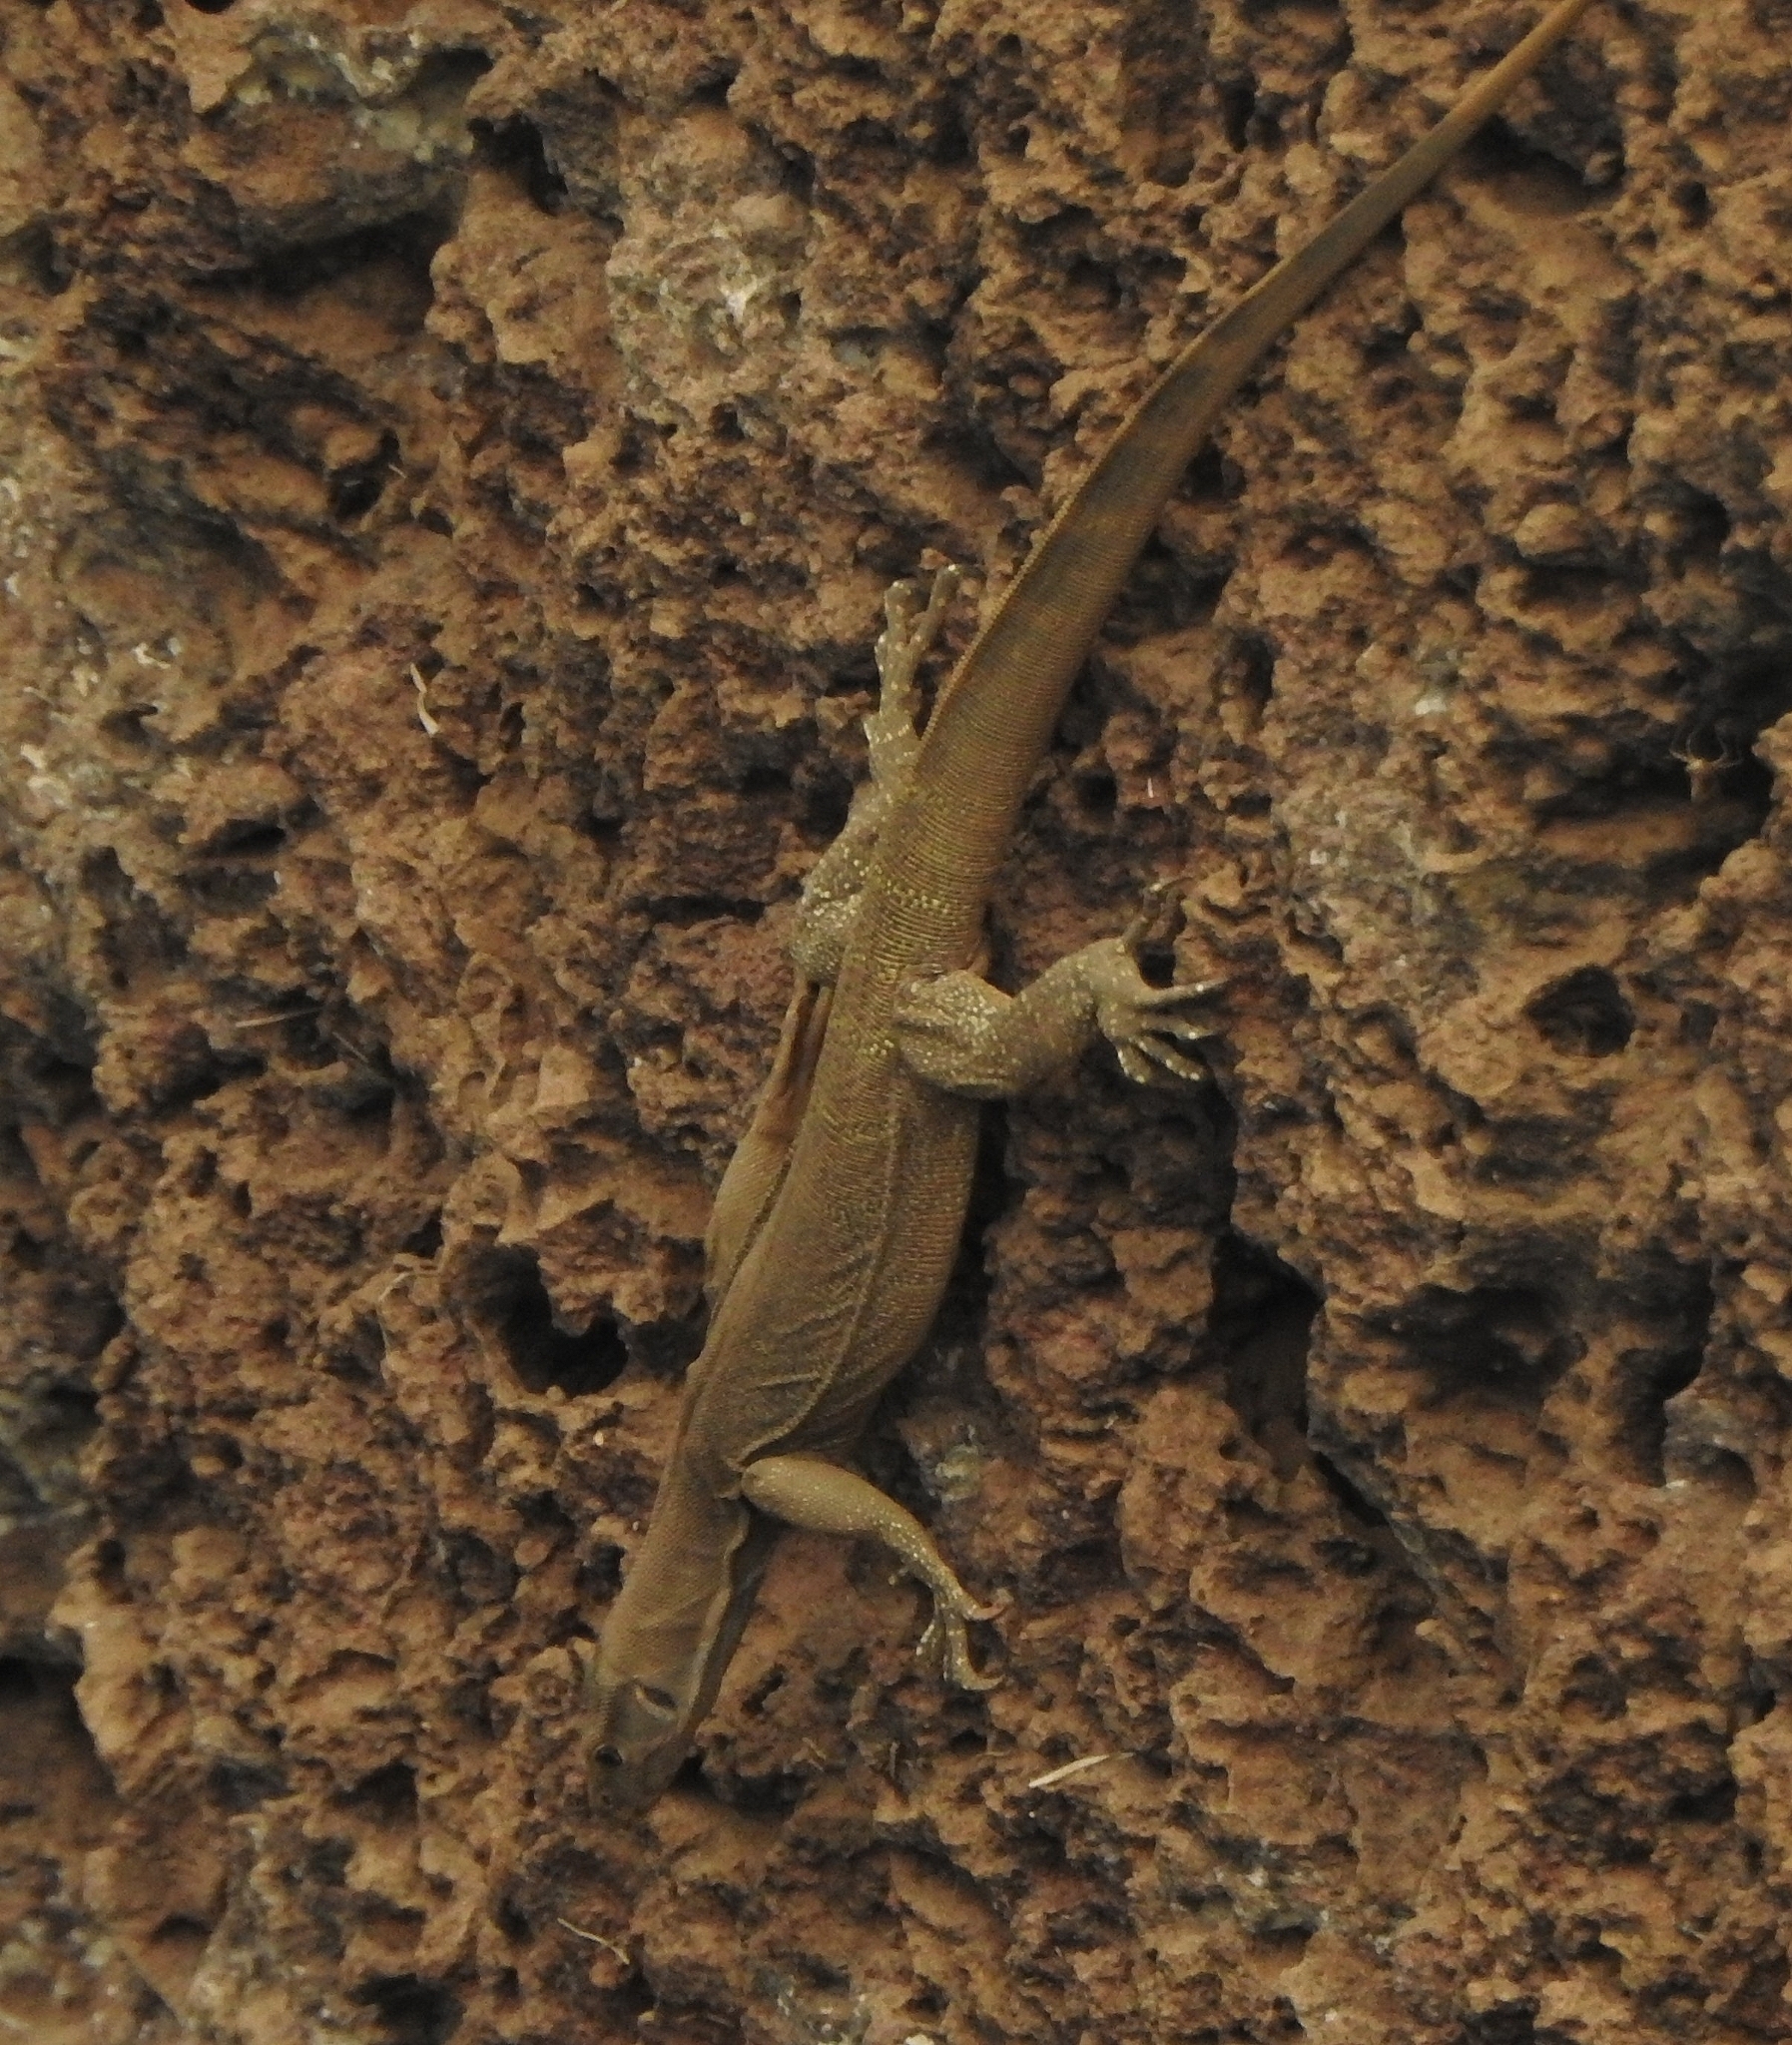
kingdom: Animalia
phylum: Chordata
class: Squamata
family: Varanidae
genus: Varanus
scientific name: Varanus bengalensis
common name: Bengal monitor
